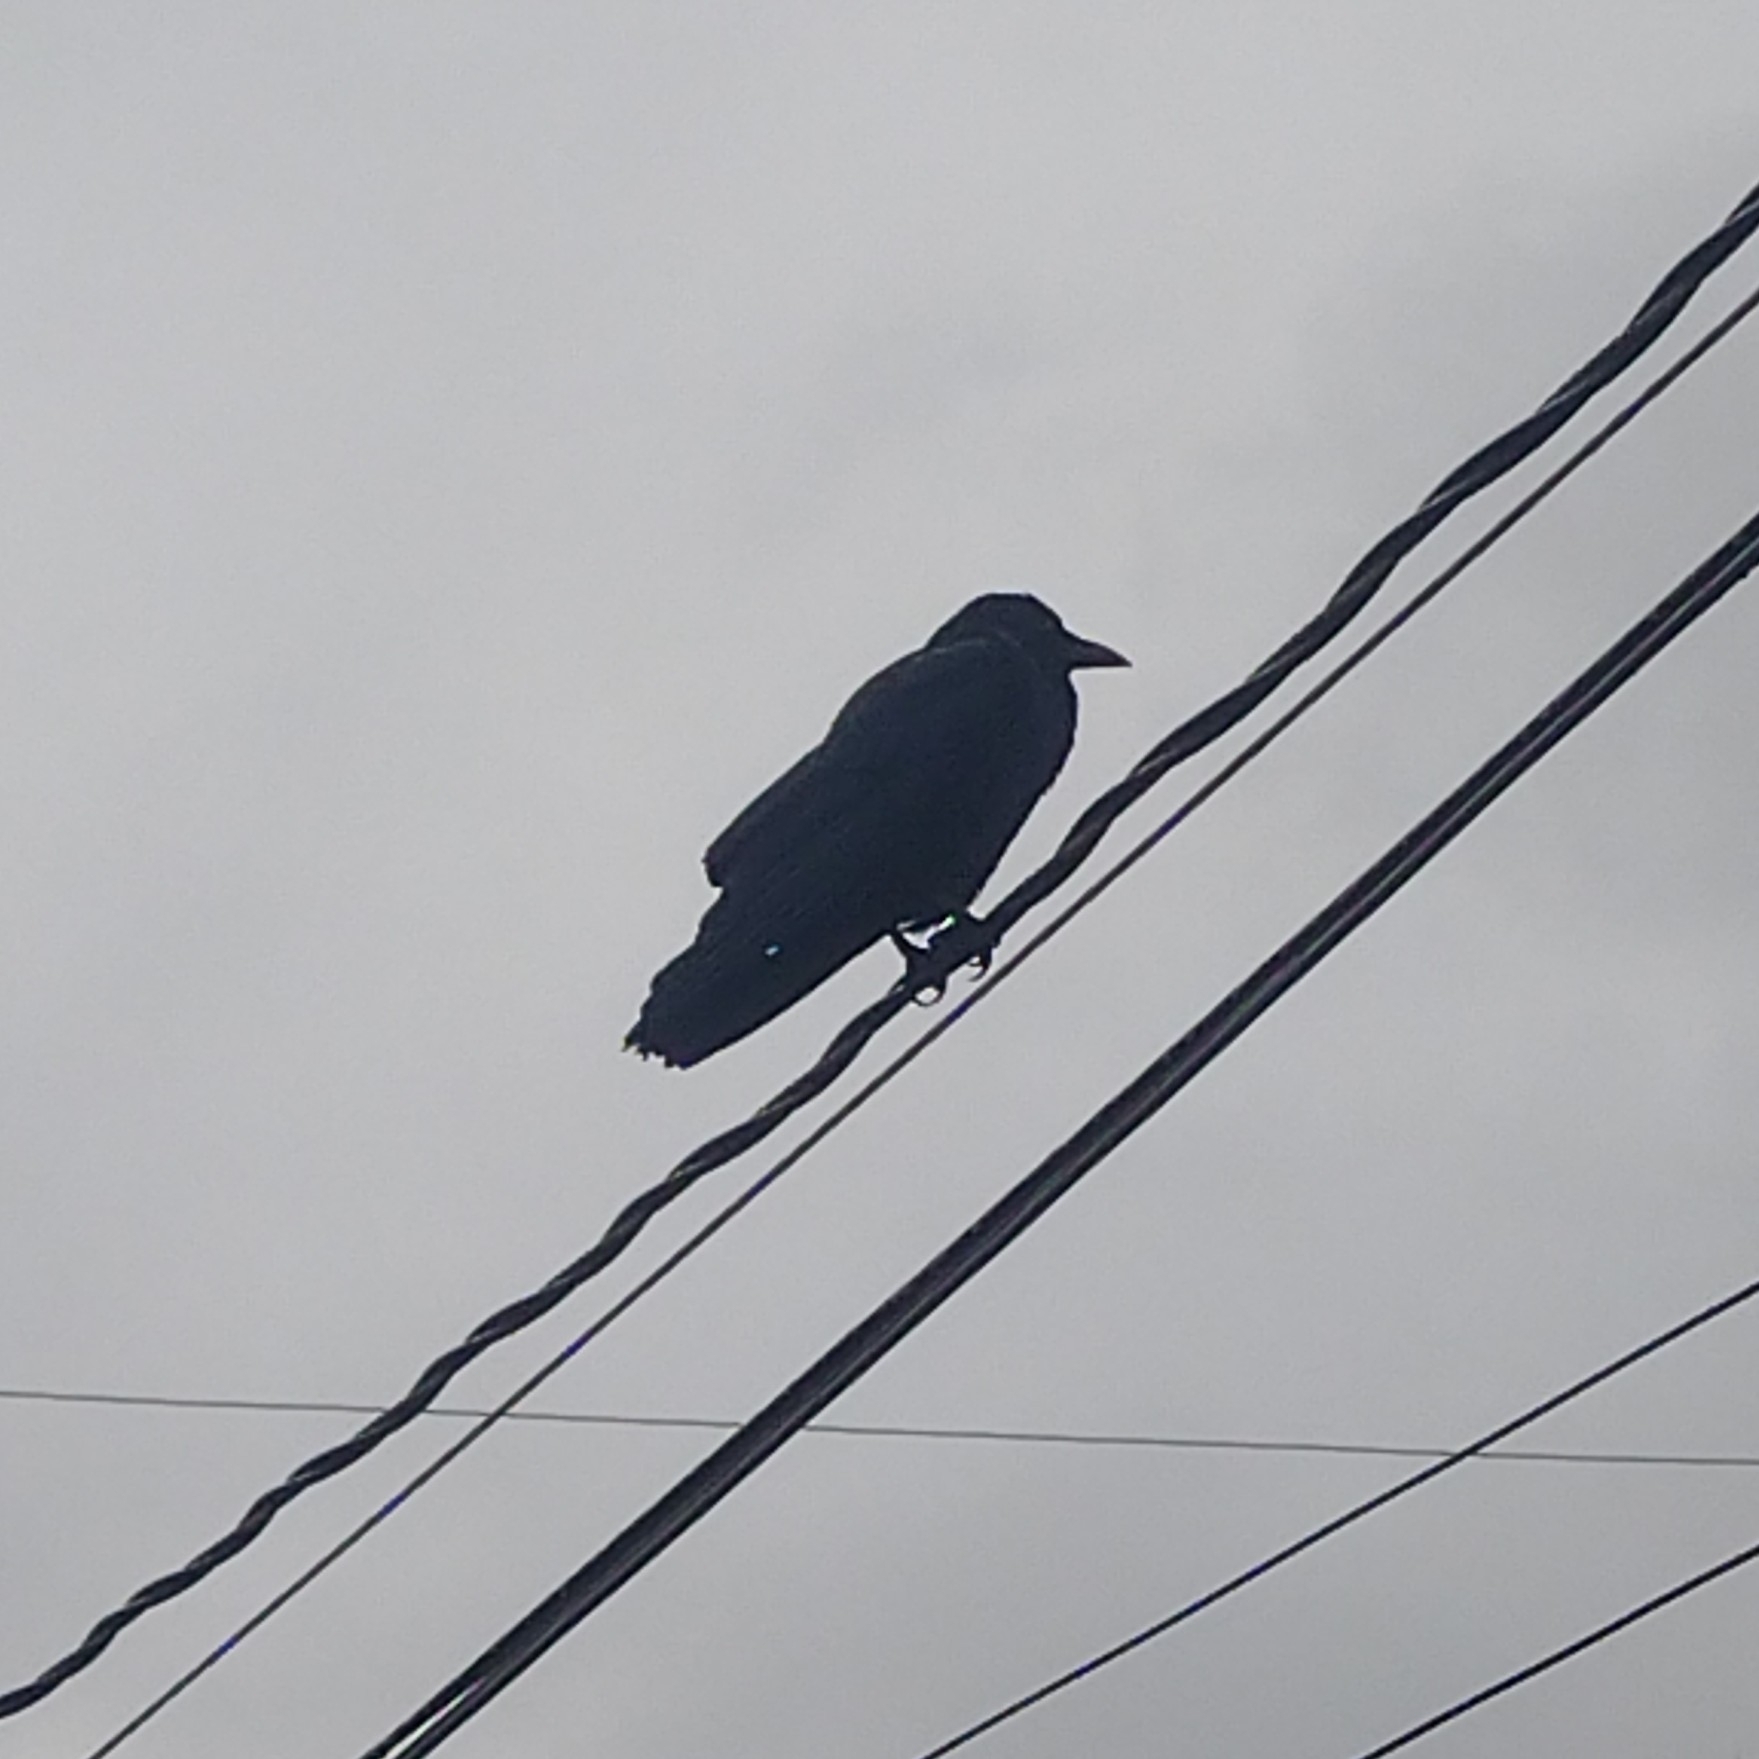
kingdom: Animalia
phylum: Chordata
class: Aves
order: Passeriformes
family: Corvidae
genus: Corvus
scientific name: Corvus brachyrhynchos
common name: American crow
